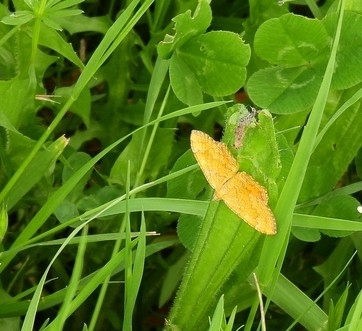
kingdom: Animalia
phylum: Arthropoda
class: Insecta
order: Lepidoptera
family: Geometridae
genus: Camptogramma
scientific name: Camptogramma bilineata
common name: Yellow shell
